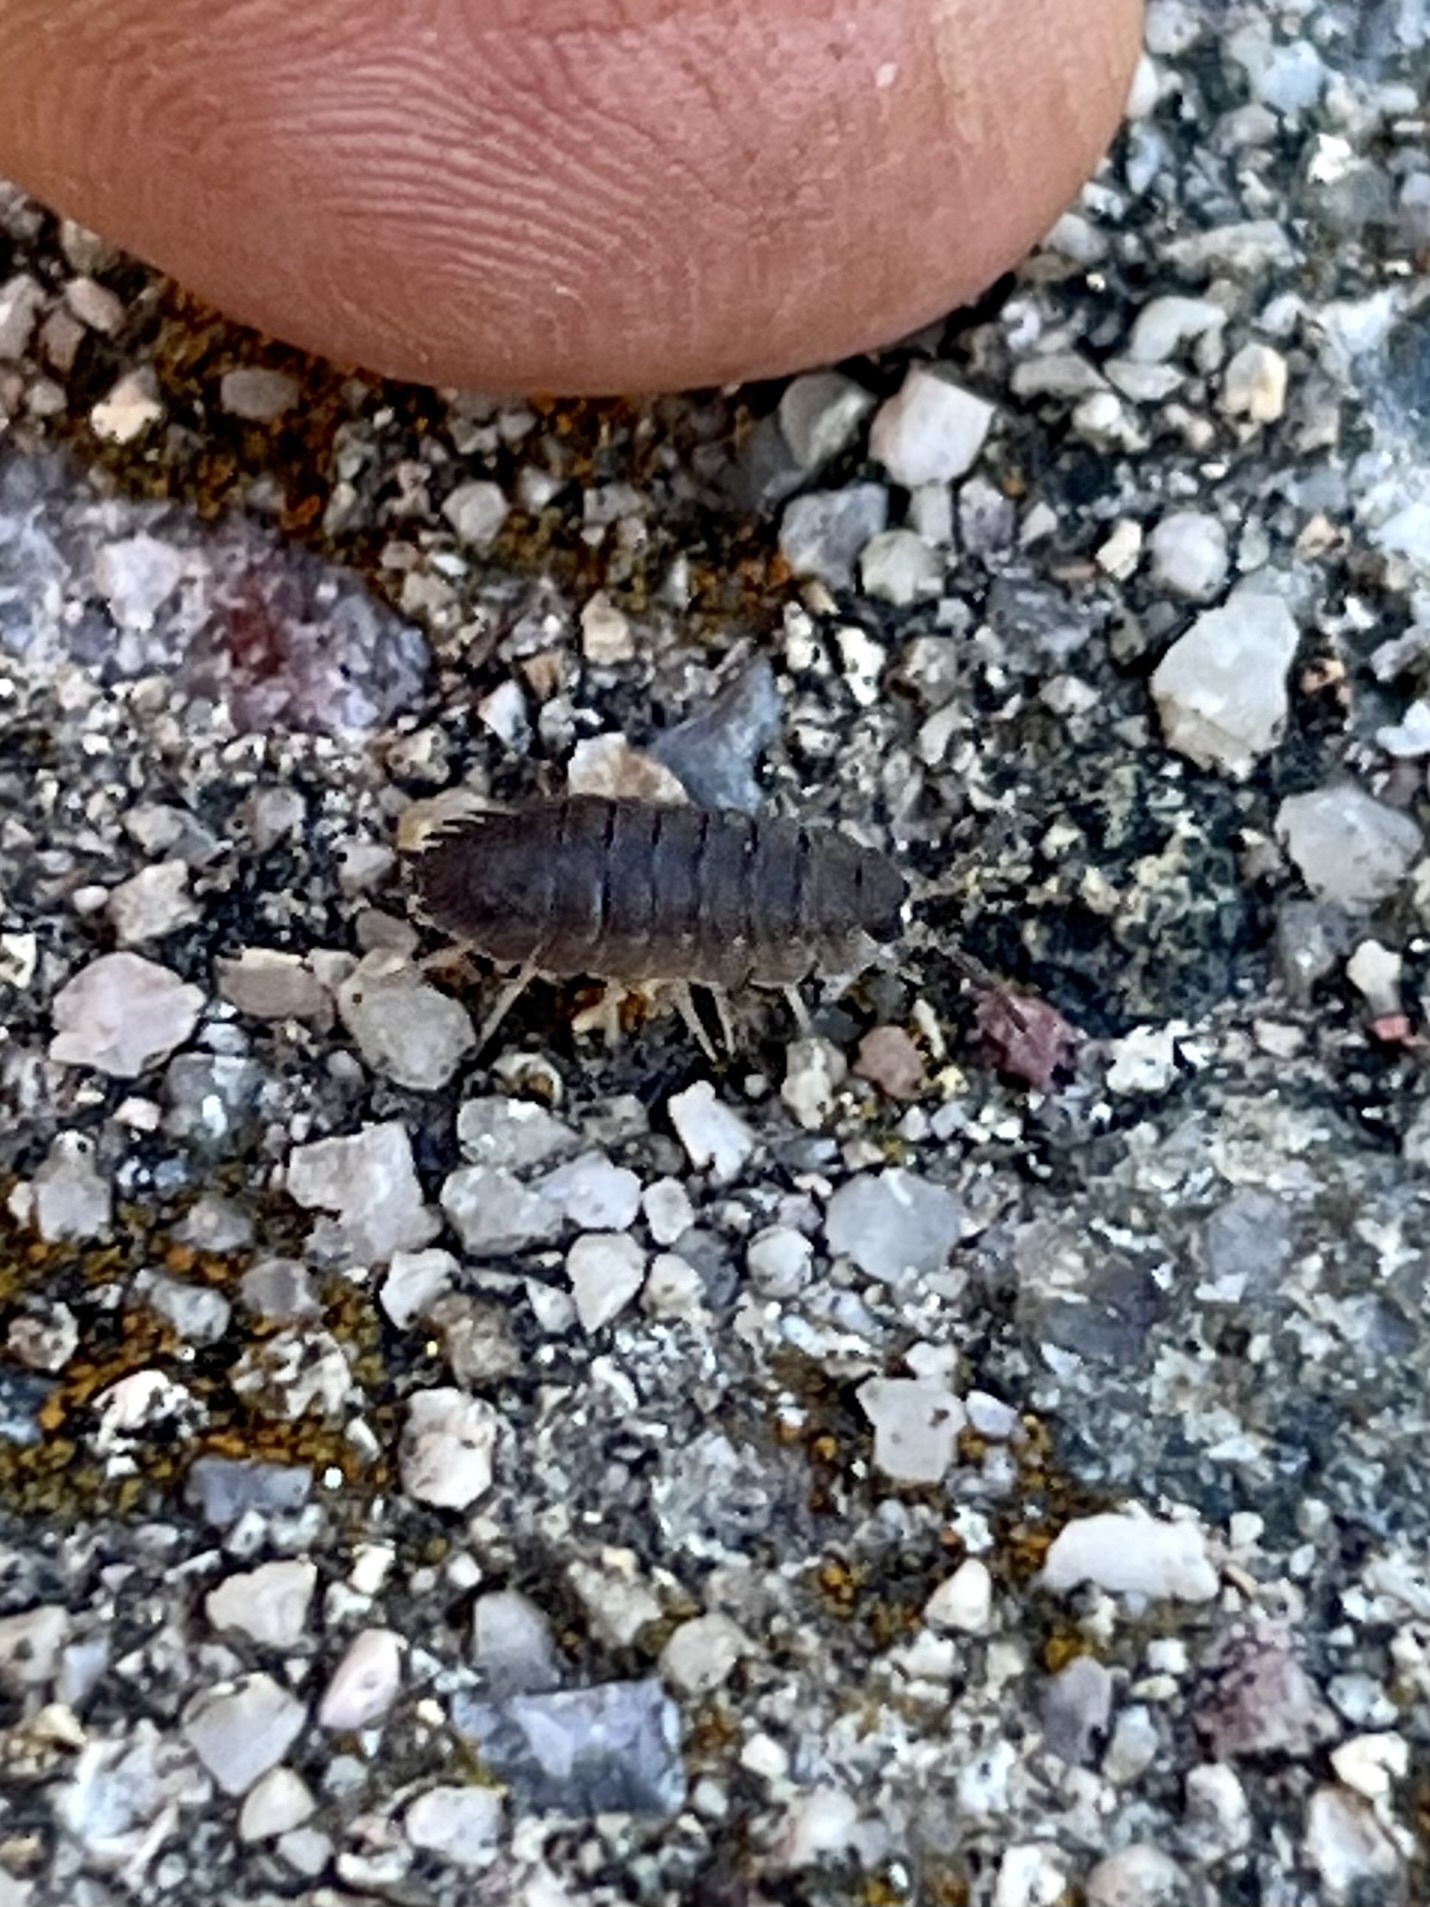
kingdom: Animalia
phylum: Arthropoda
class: Malacostraca
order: Isopoda
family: Porcellionidae
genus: Porcellio
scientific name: Porcellio scaber
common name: Common rough woodlouse
